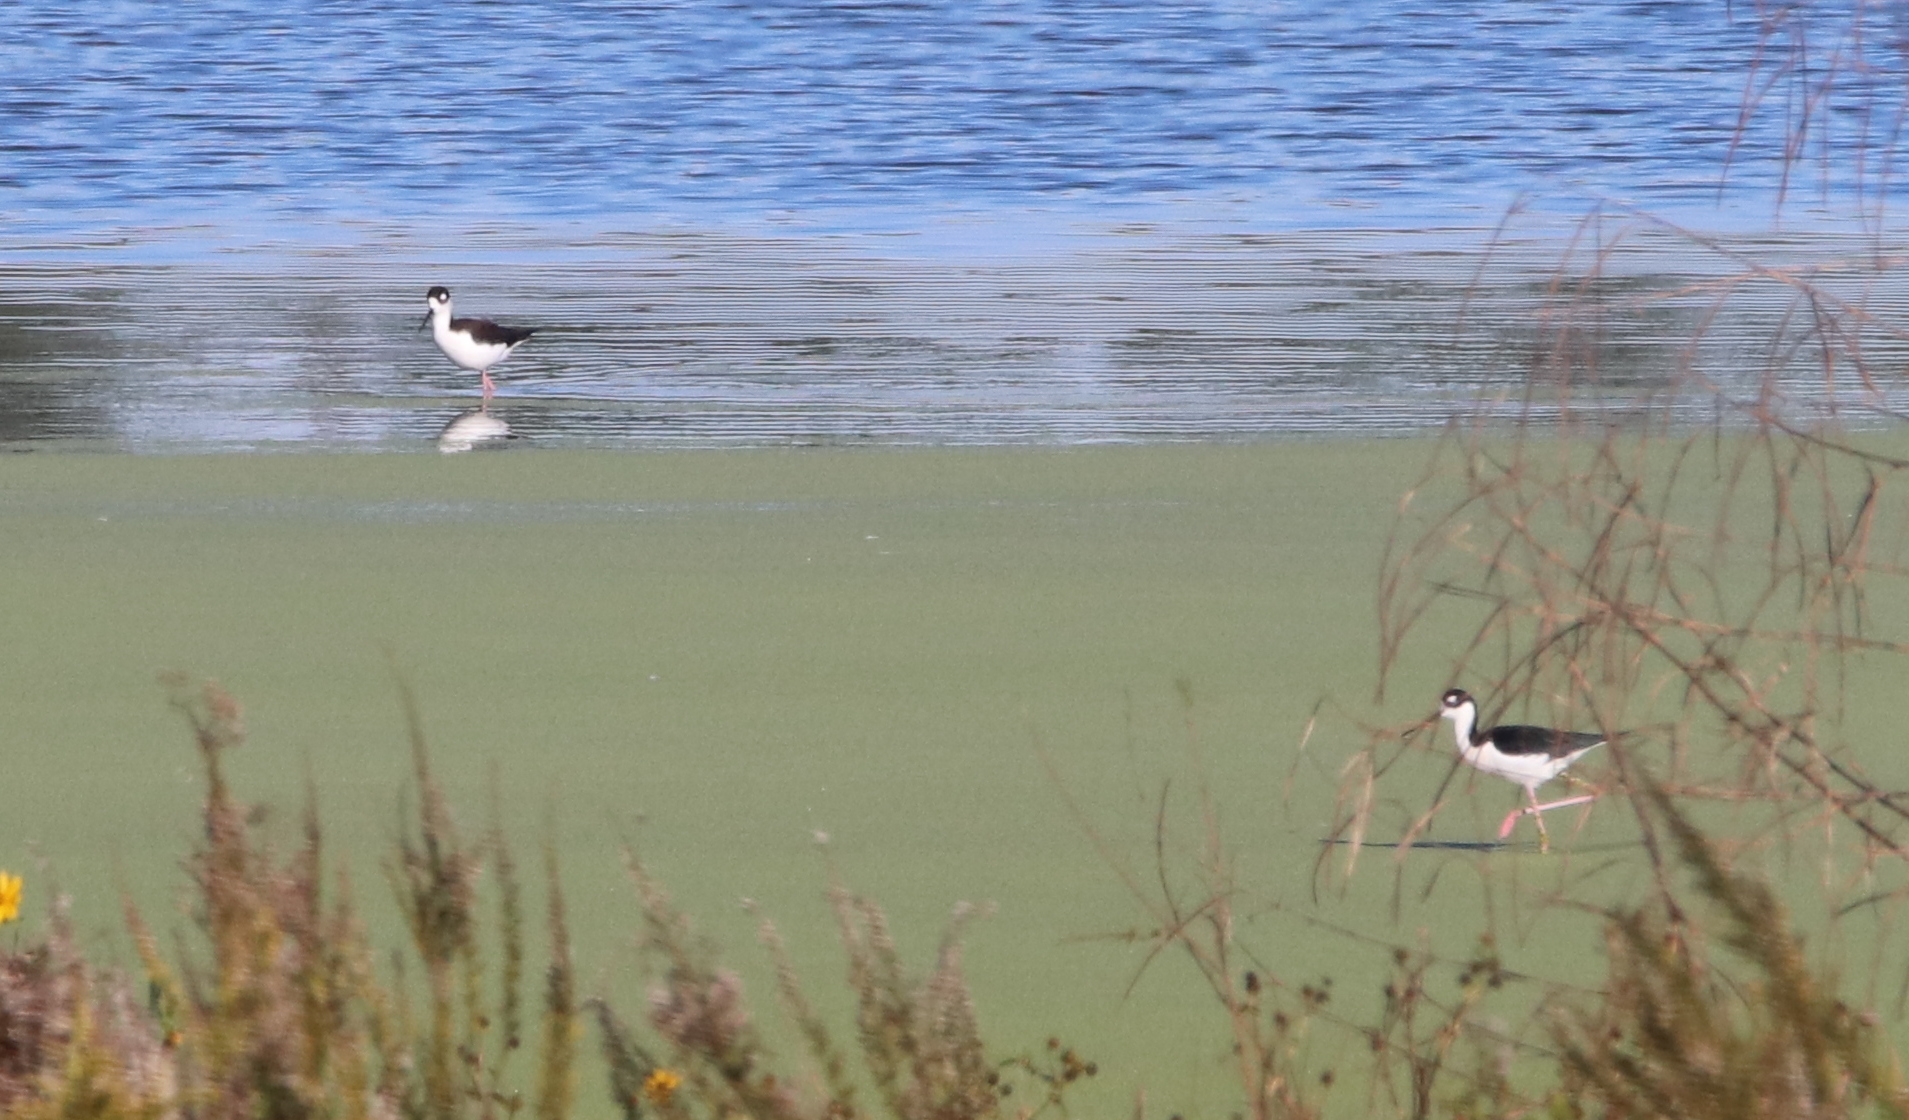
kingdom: Animalia
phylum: Chordata
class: Aves
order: Charadriiformes
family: Recurvirostridae
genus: Himantopus
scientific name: Himantopus mexicanus
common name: Black-necked stilt
